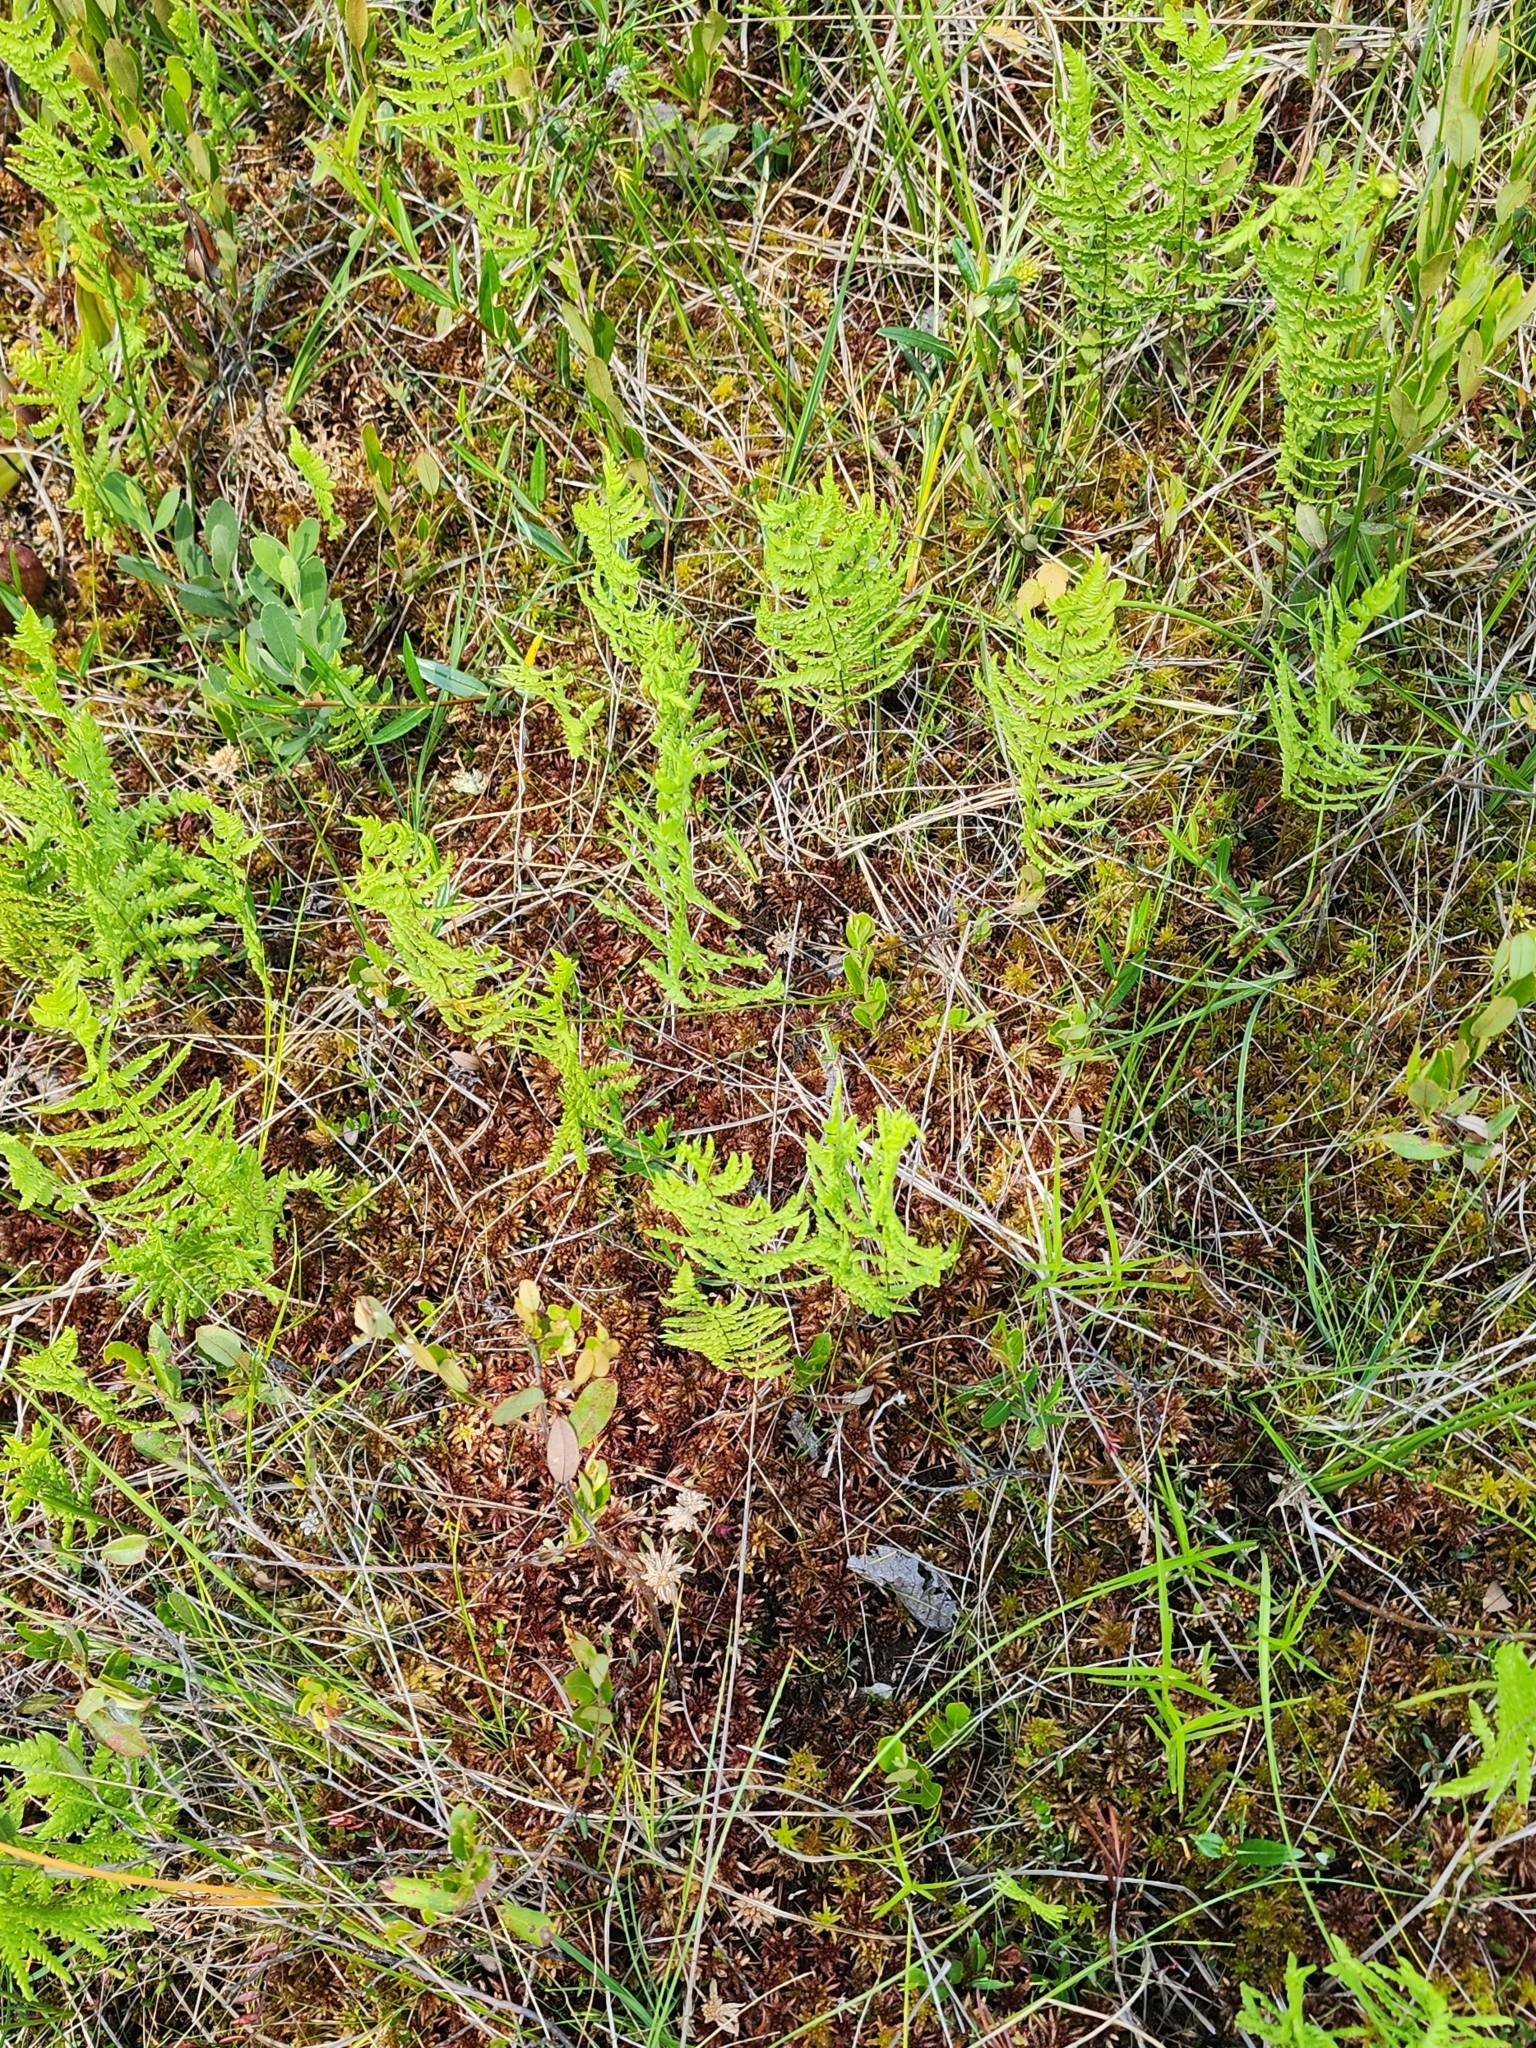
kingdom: Plantae
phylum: Tracheophyta
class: Polypodiopsida
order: Polypodiales
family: Thelypteridaceae
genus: Thelypteris
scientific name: Thelypteris palustris
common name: Marsh fern
